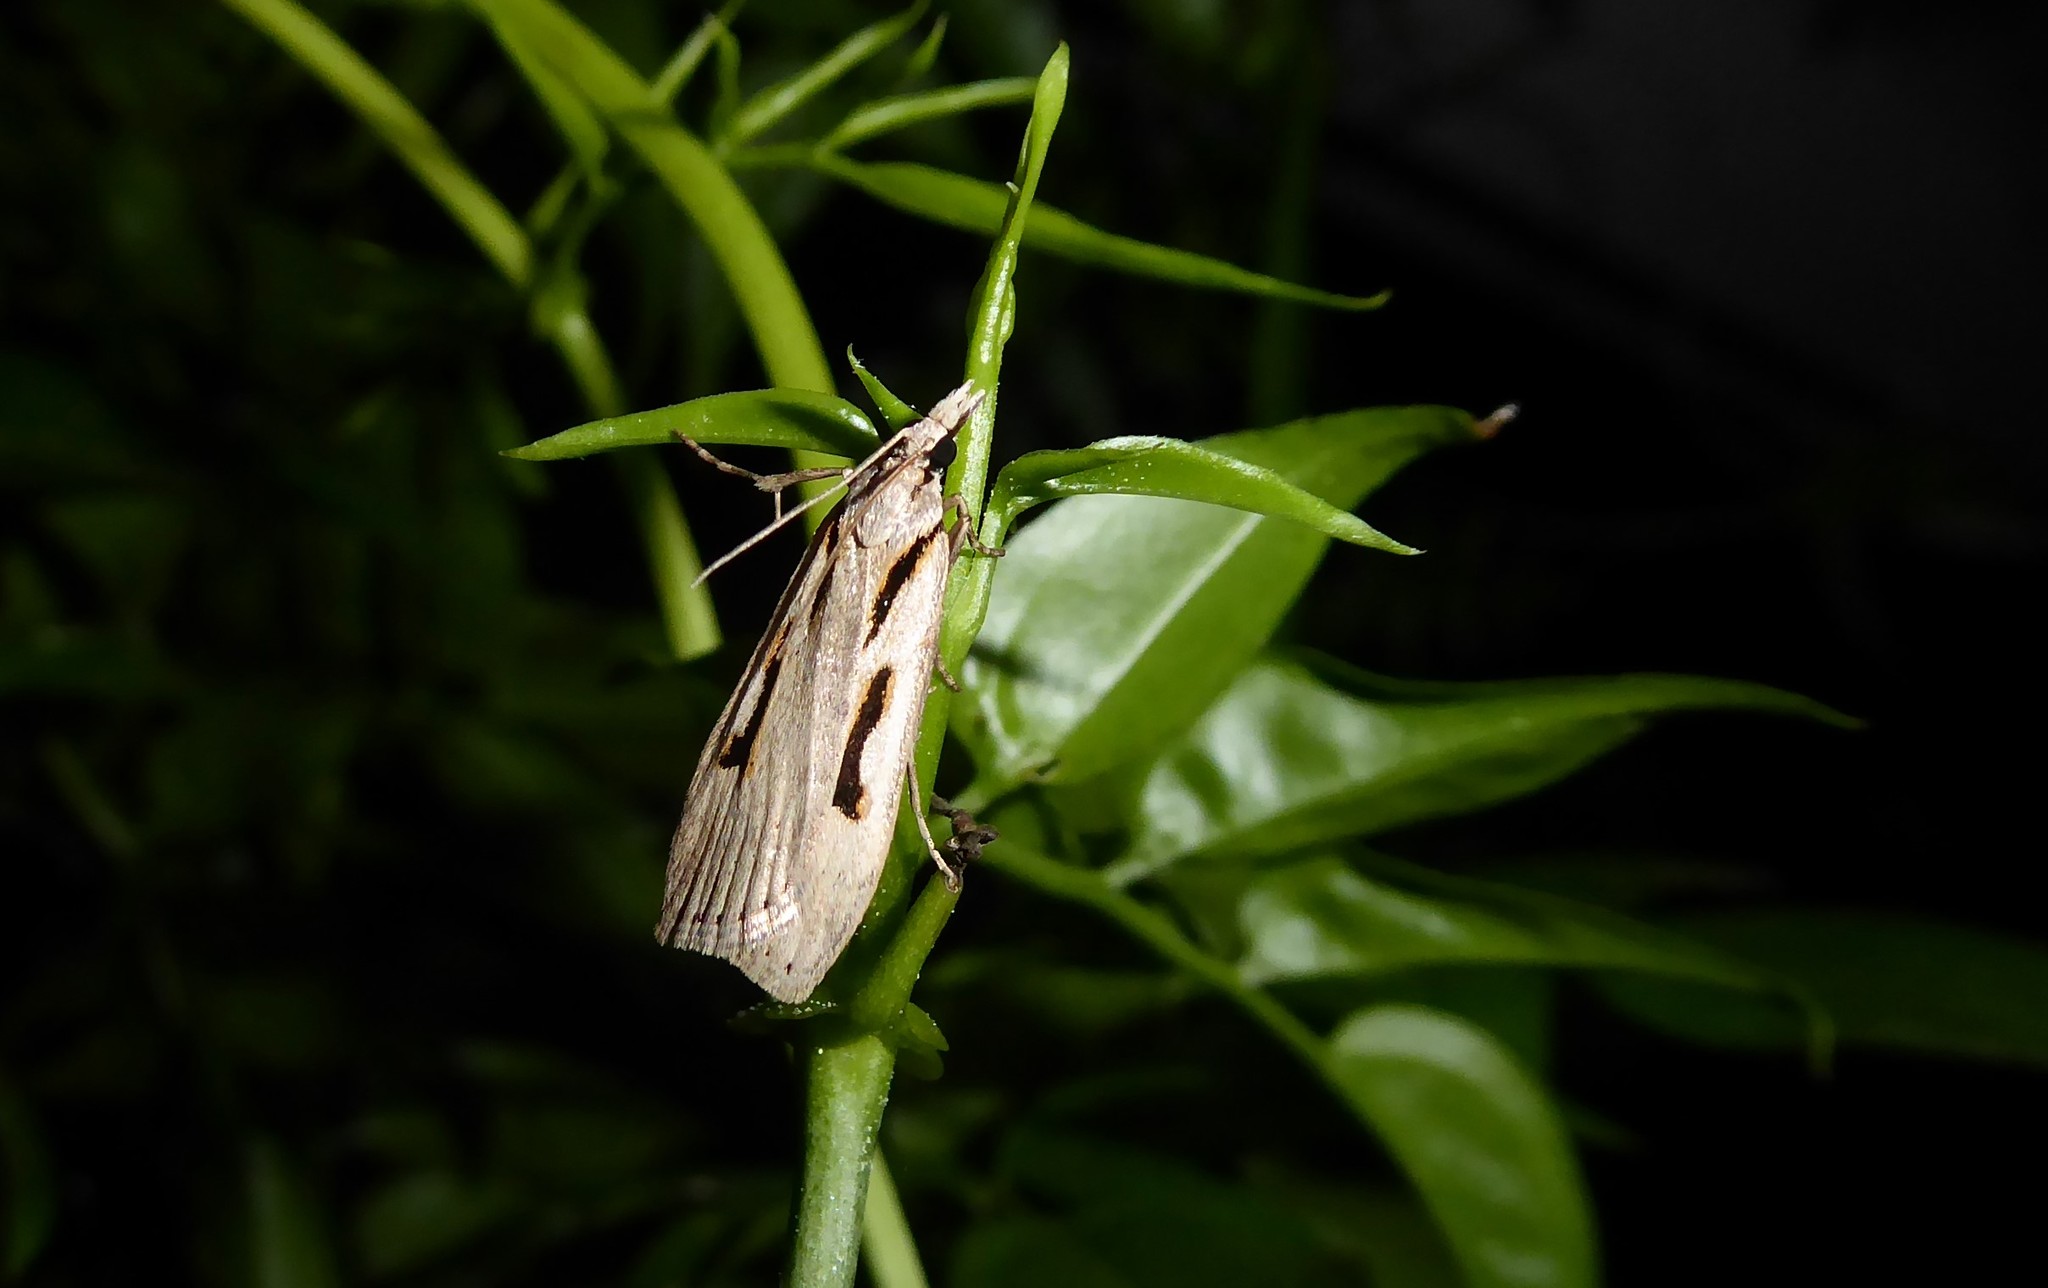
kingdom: Animalia
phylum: Arthropoda
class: Insecta
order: Lepidoptera
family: Crambidae
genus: Scoparia
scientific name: Scoparia rotuellus
